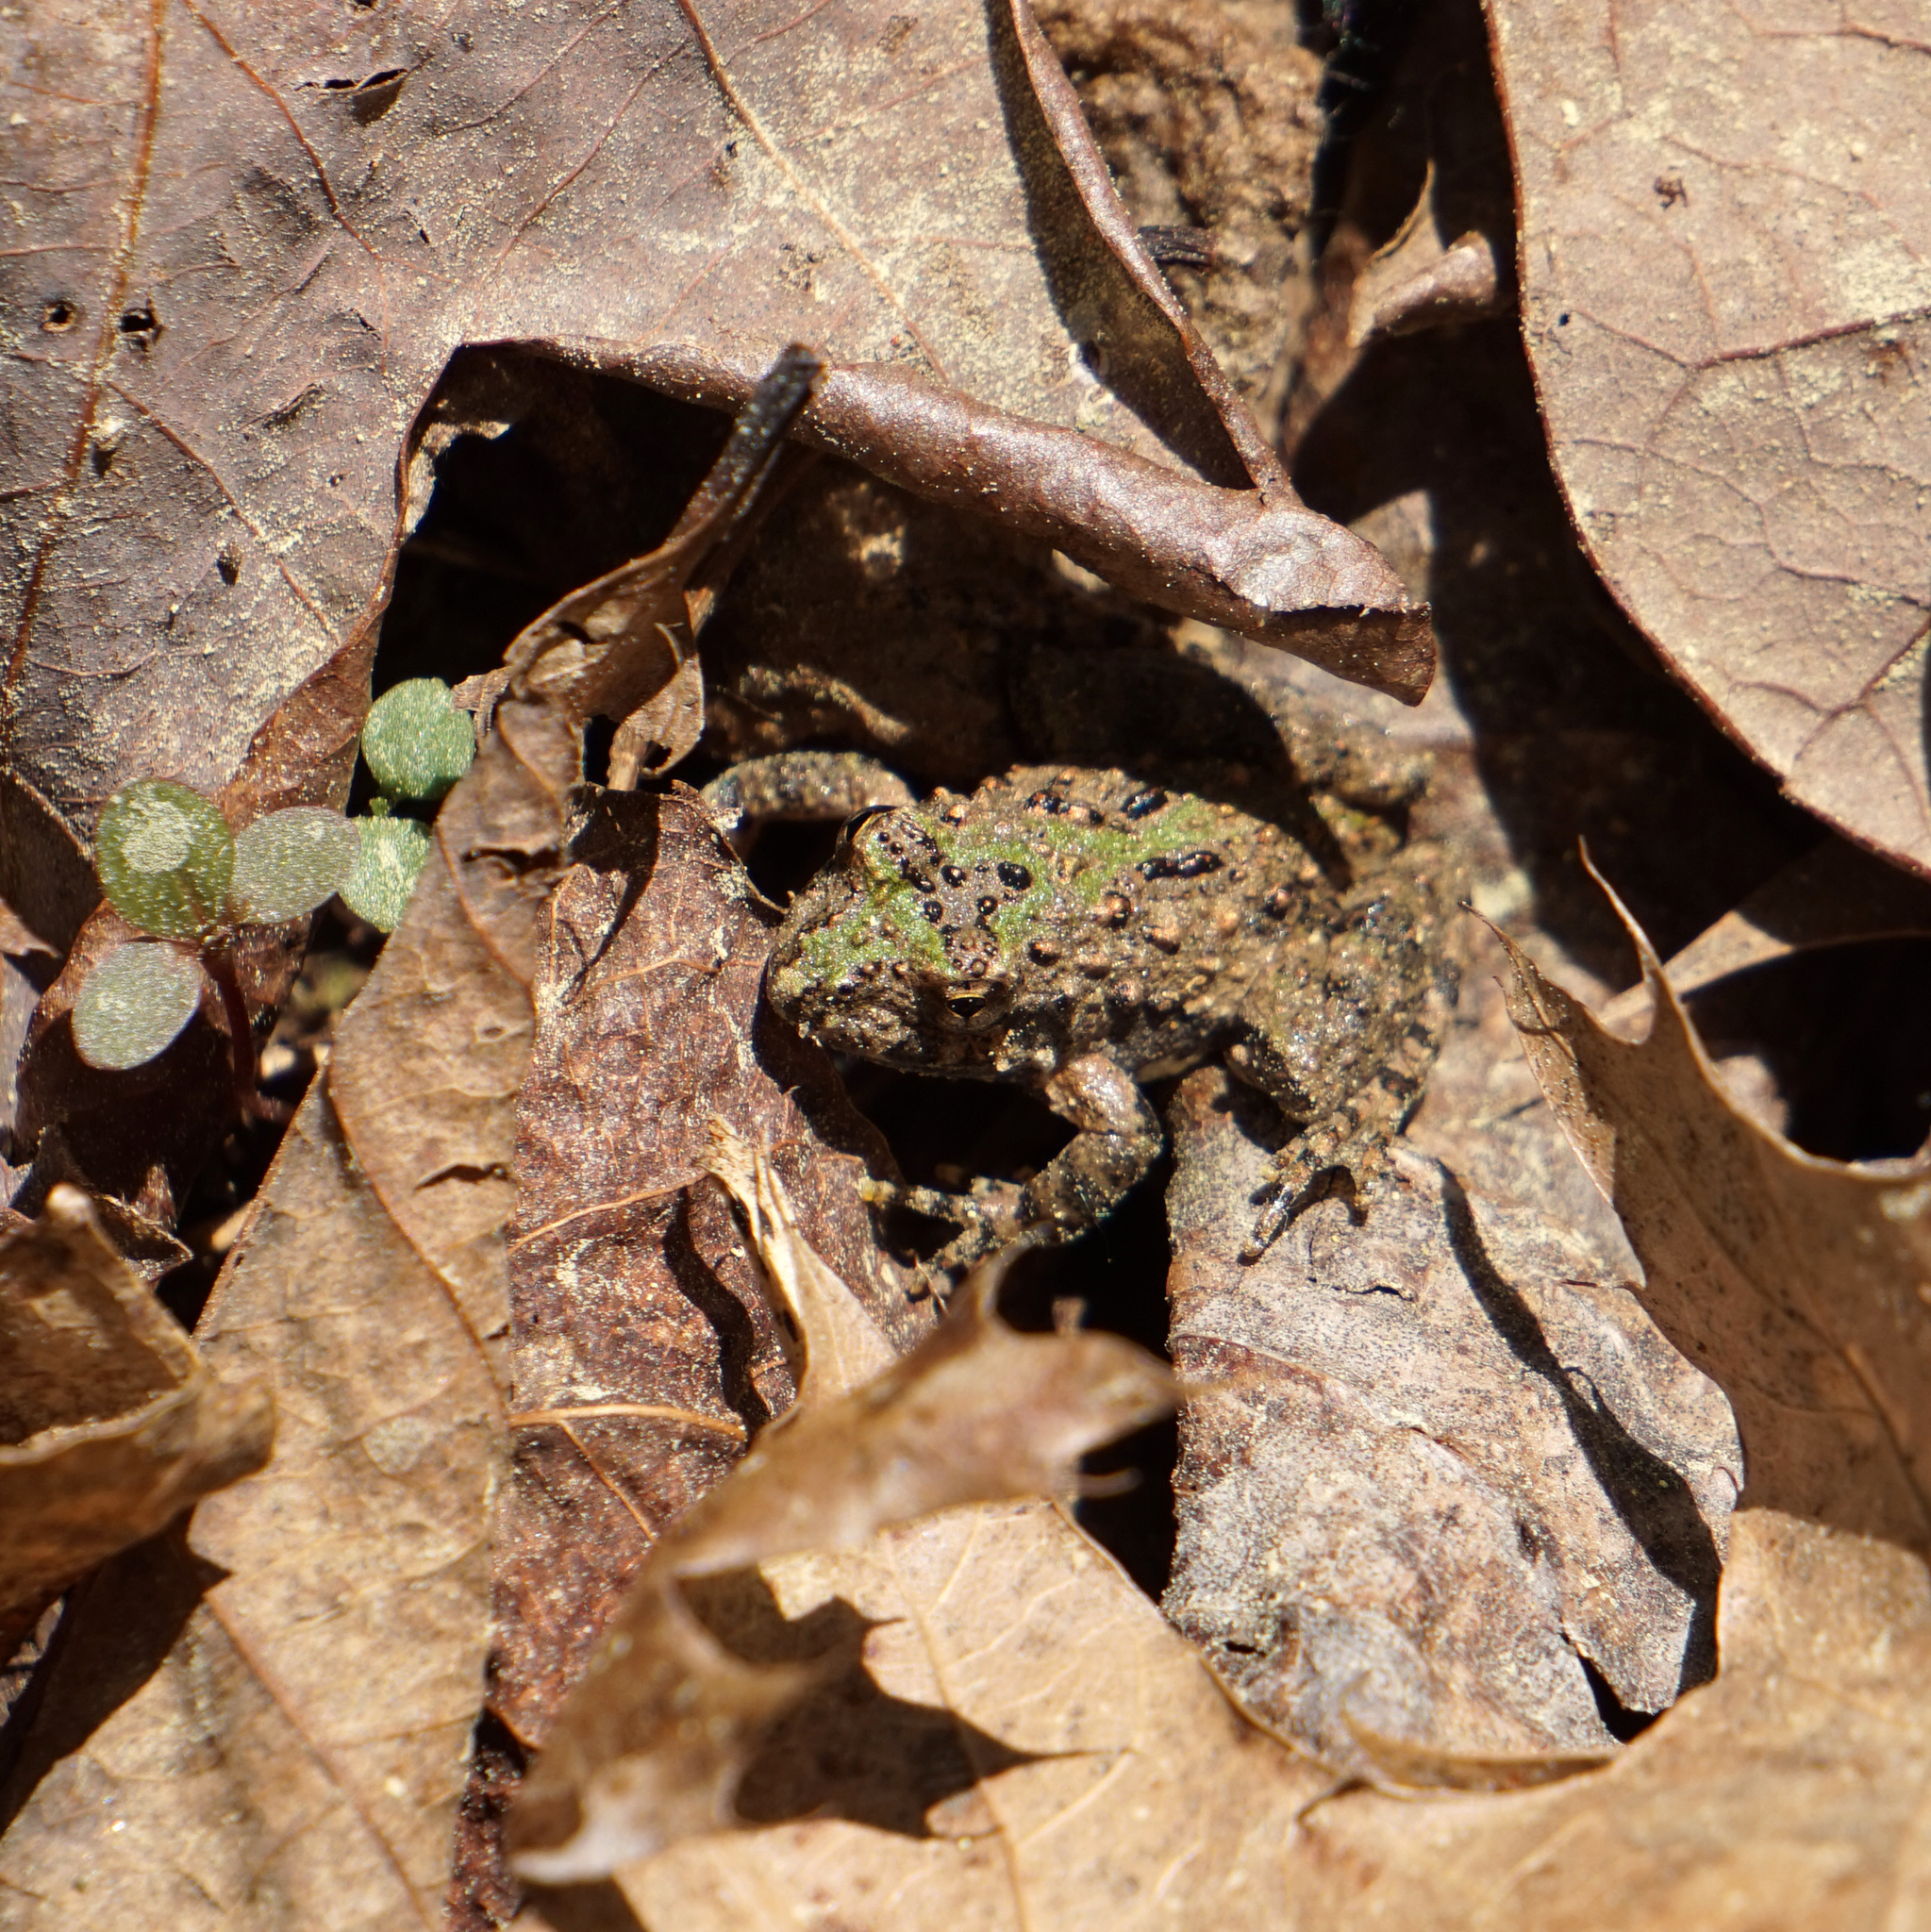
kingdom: Animalia
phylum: Chordata
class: Amphibia
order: Anura
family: Hylidae
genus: Acris
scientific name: Acris crepitans
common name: Northern cricket frog
